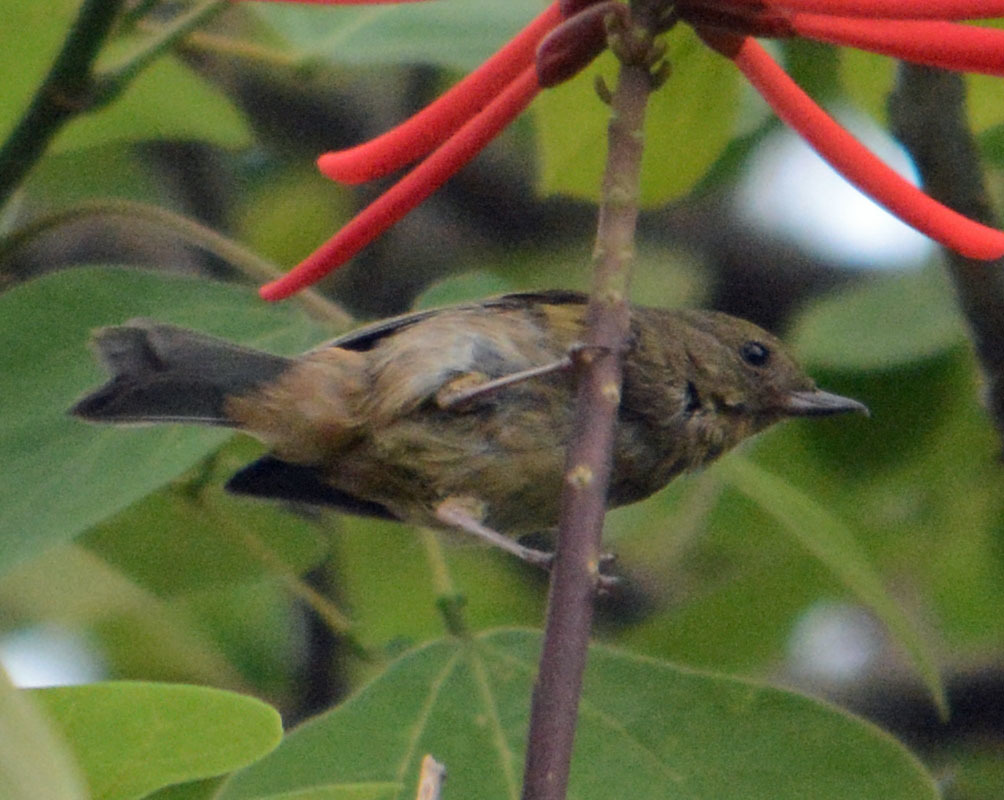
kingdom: Animalia
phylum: Chordata
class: Aves
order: Passeriformes
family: Thraupidae
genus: Diglossa
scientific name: Diglossa baritula
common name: Cinnamon-bellied flowerpiercer
